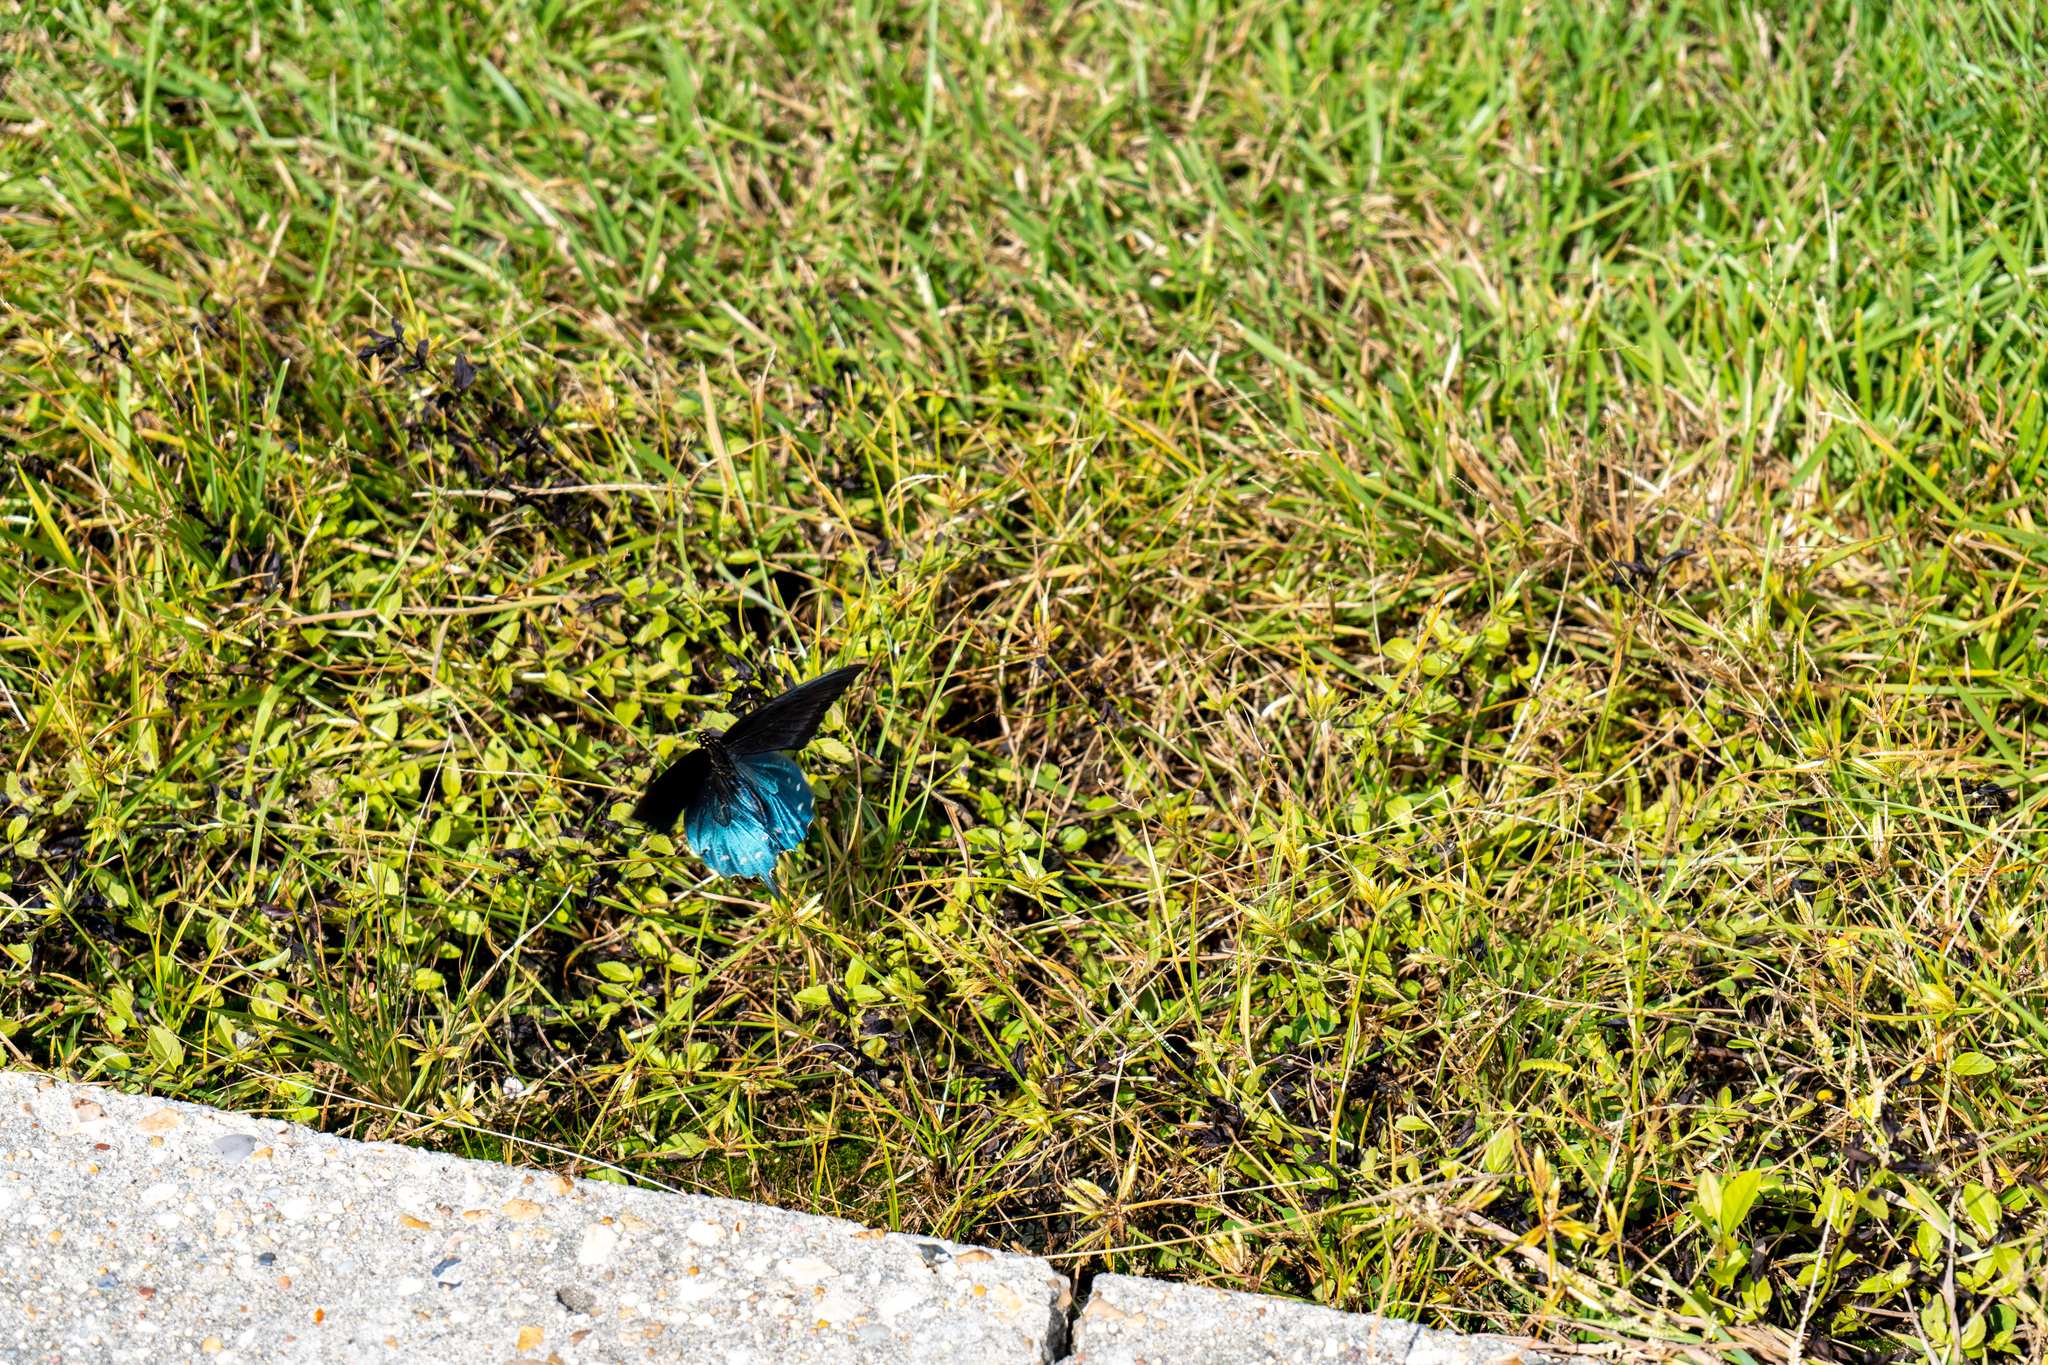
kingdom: Animalia
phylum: Arthropoda
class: Insecta
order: Lepidoptera
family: Papilionidae
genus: Battus
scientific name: Battus philenor
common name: Pipevine swallowtail
